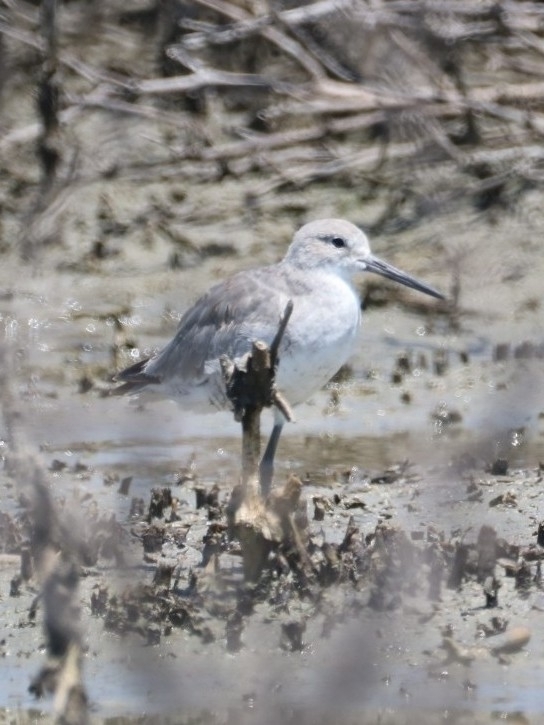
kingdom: Animalia
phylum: Chordata
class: Aves
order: Charadriiformes
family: Scolopacidae
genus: Tringa
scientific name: Tringa semipalmata
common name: Willet
